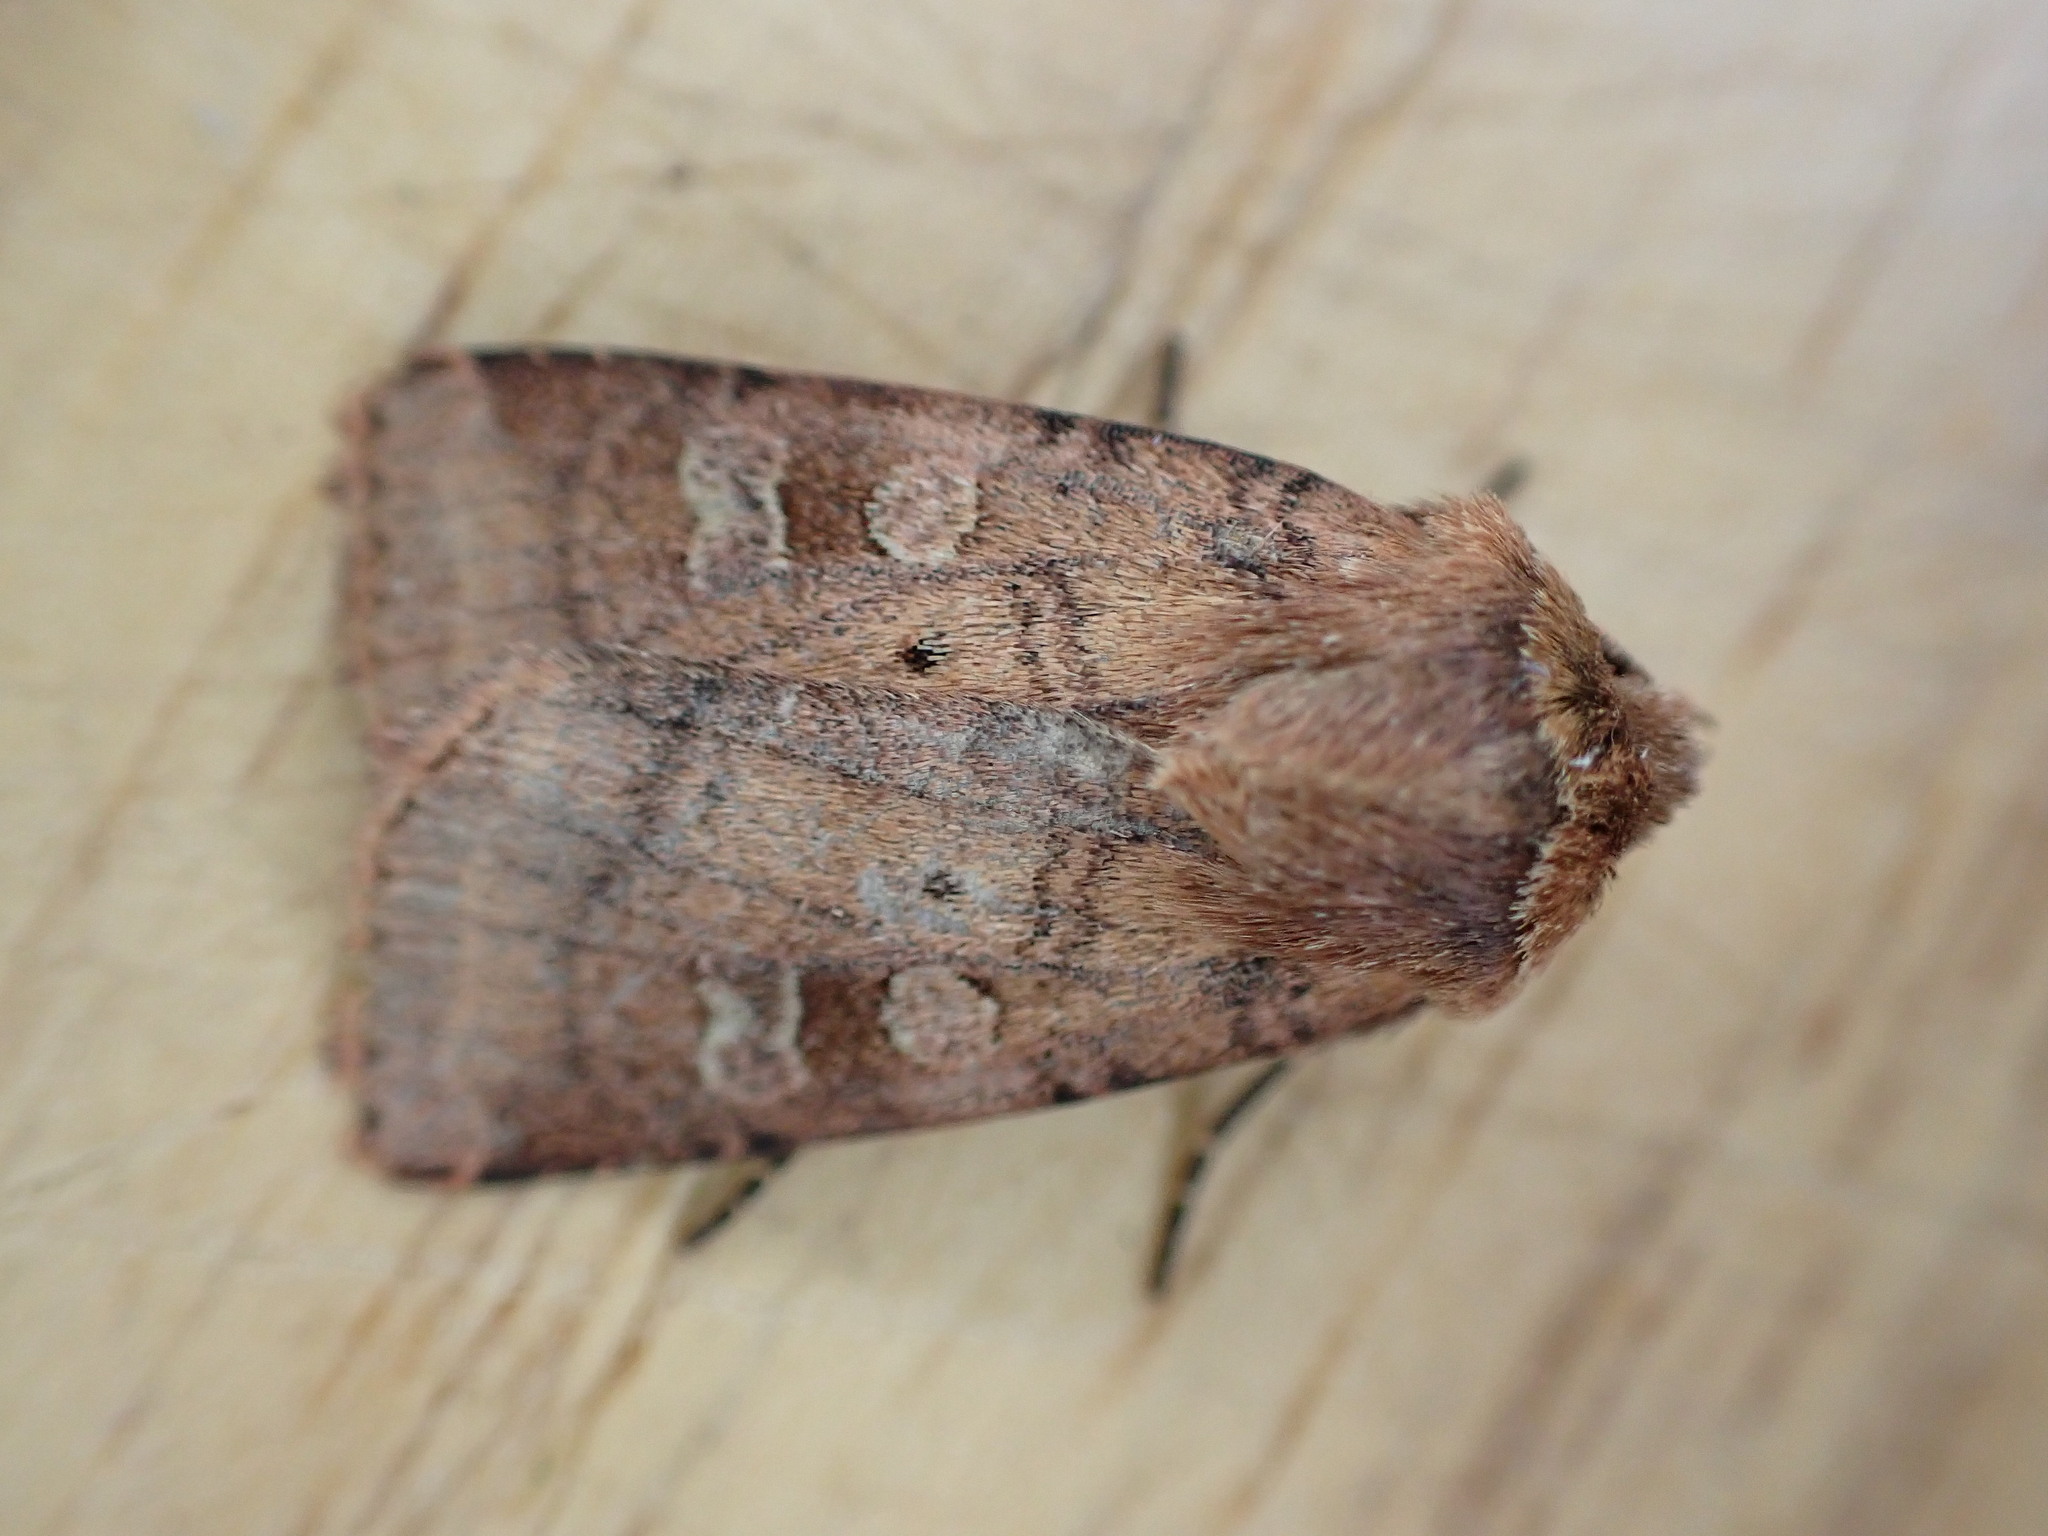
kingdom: Animalia
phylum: Arthropoda
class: Insecta
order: Lepidoptera
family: Noctuidae
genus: Diarsia
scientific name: Diarsia rubi
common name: Small square-spot
